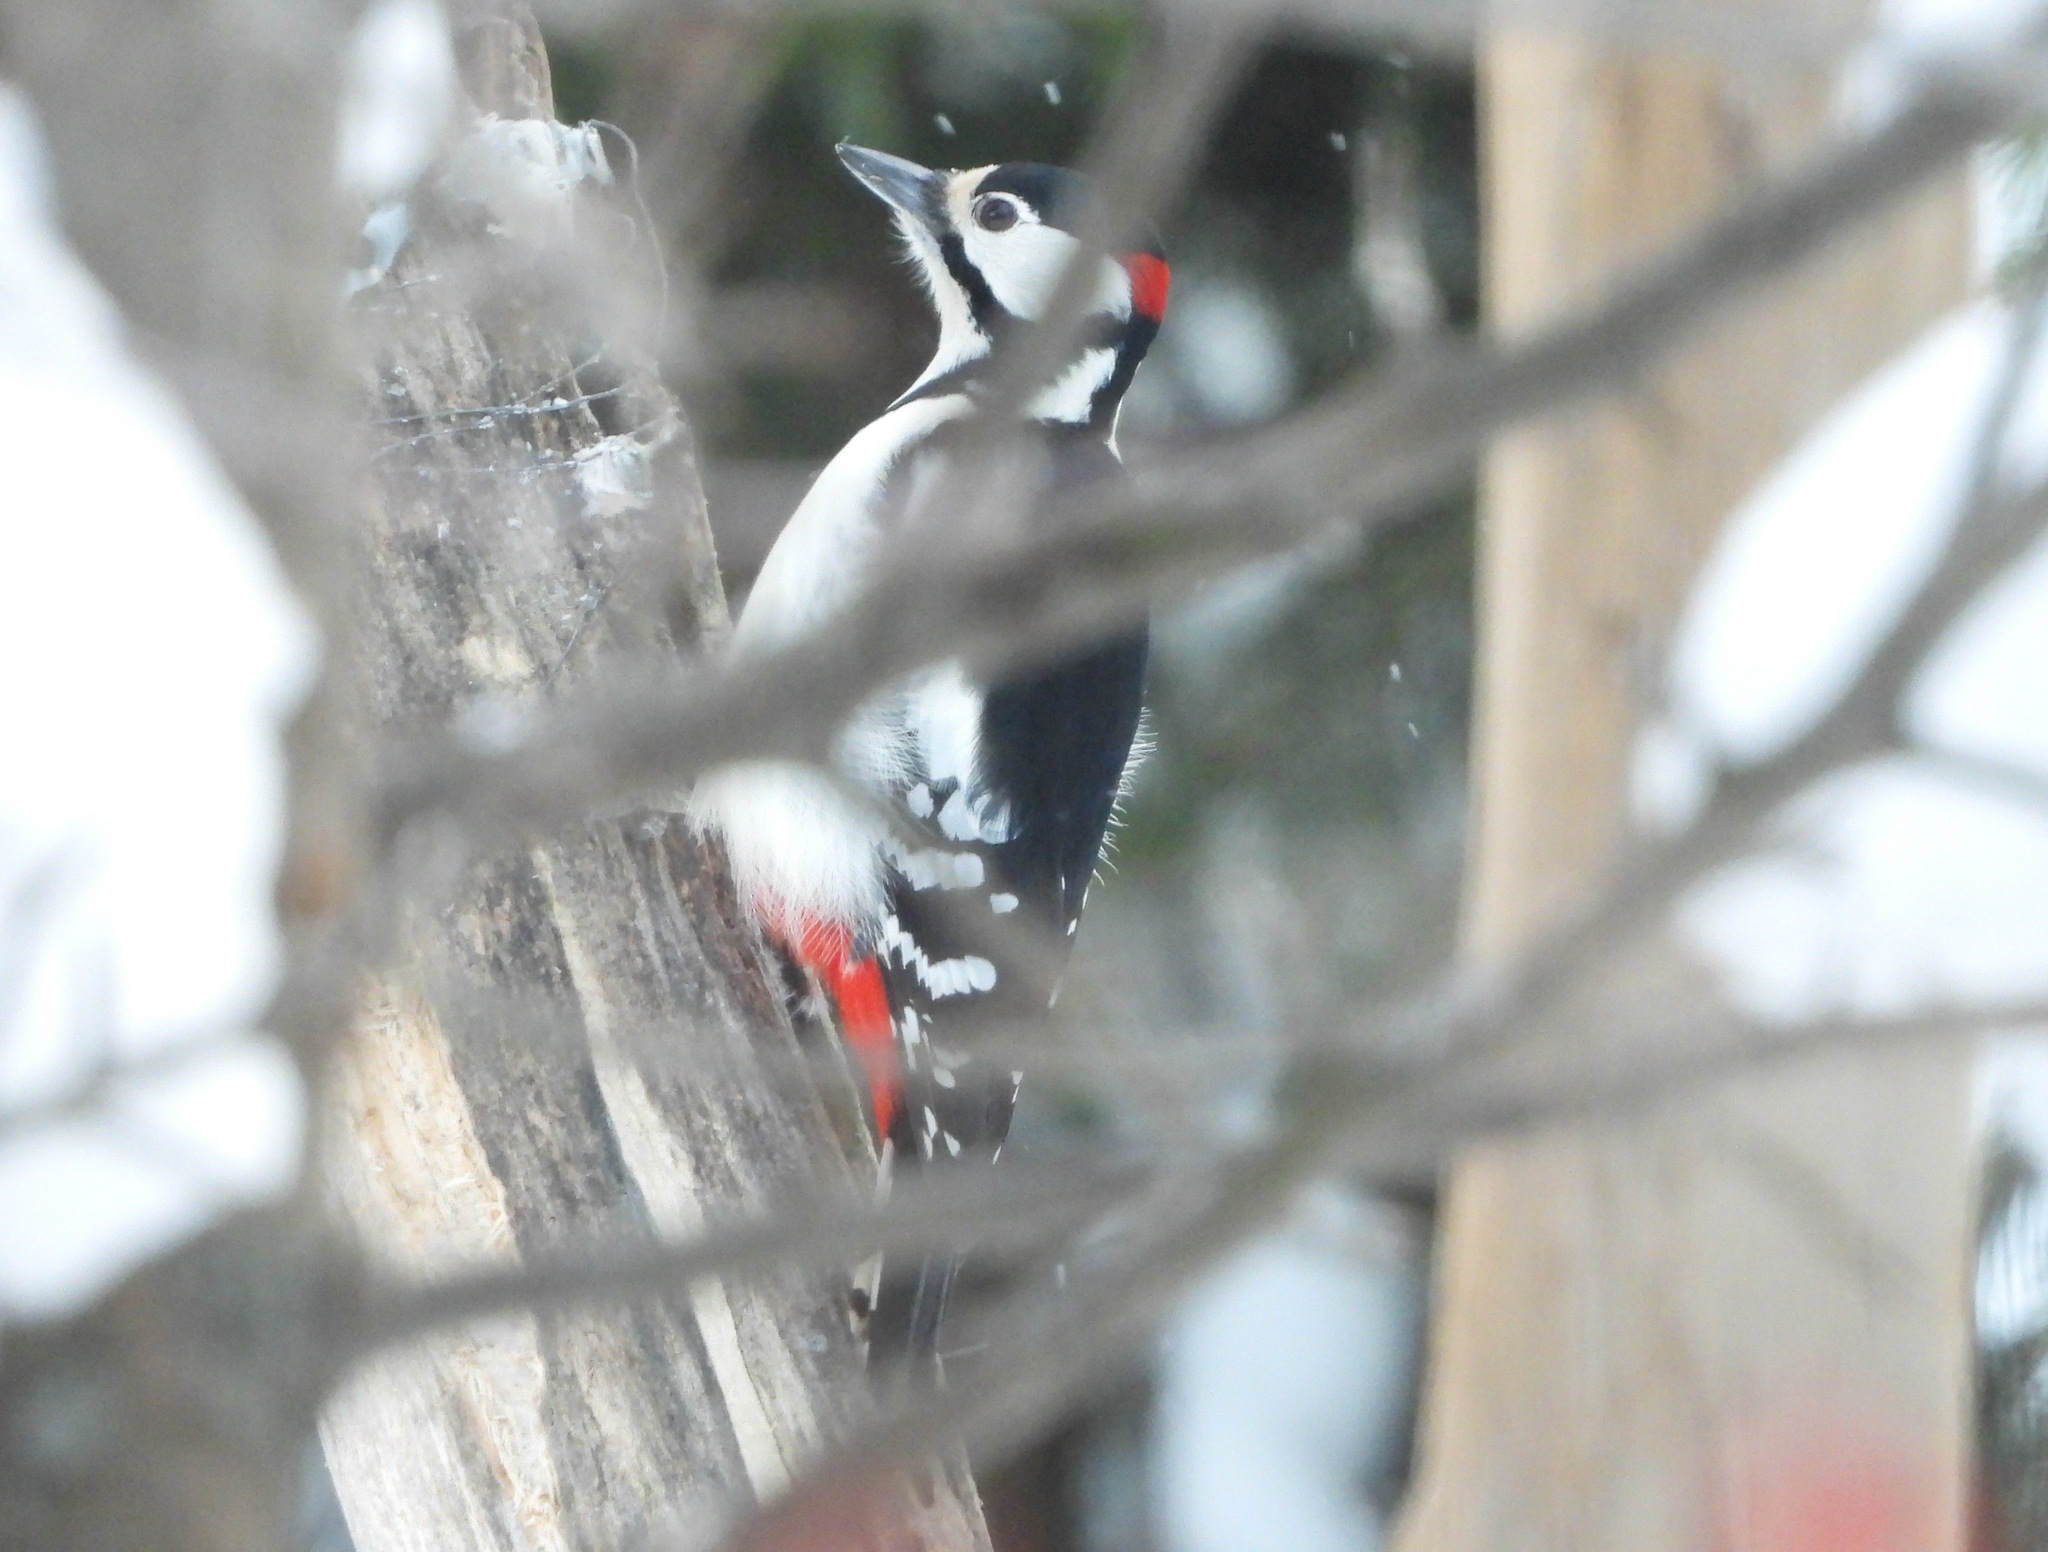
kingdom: Animalia
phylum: Chordata
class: Aves
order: Piciformes
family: Picidae
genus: Dendrocopos
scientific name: Dendrocopos major
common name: Great spotted woodpecker
